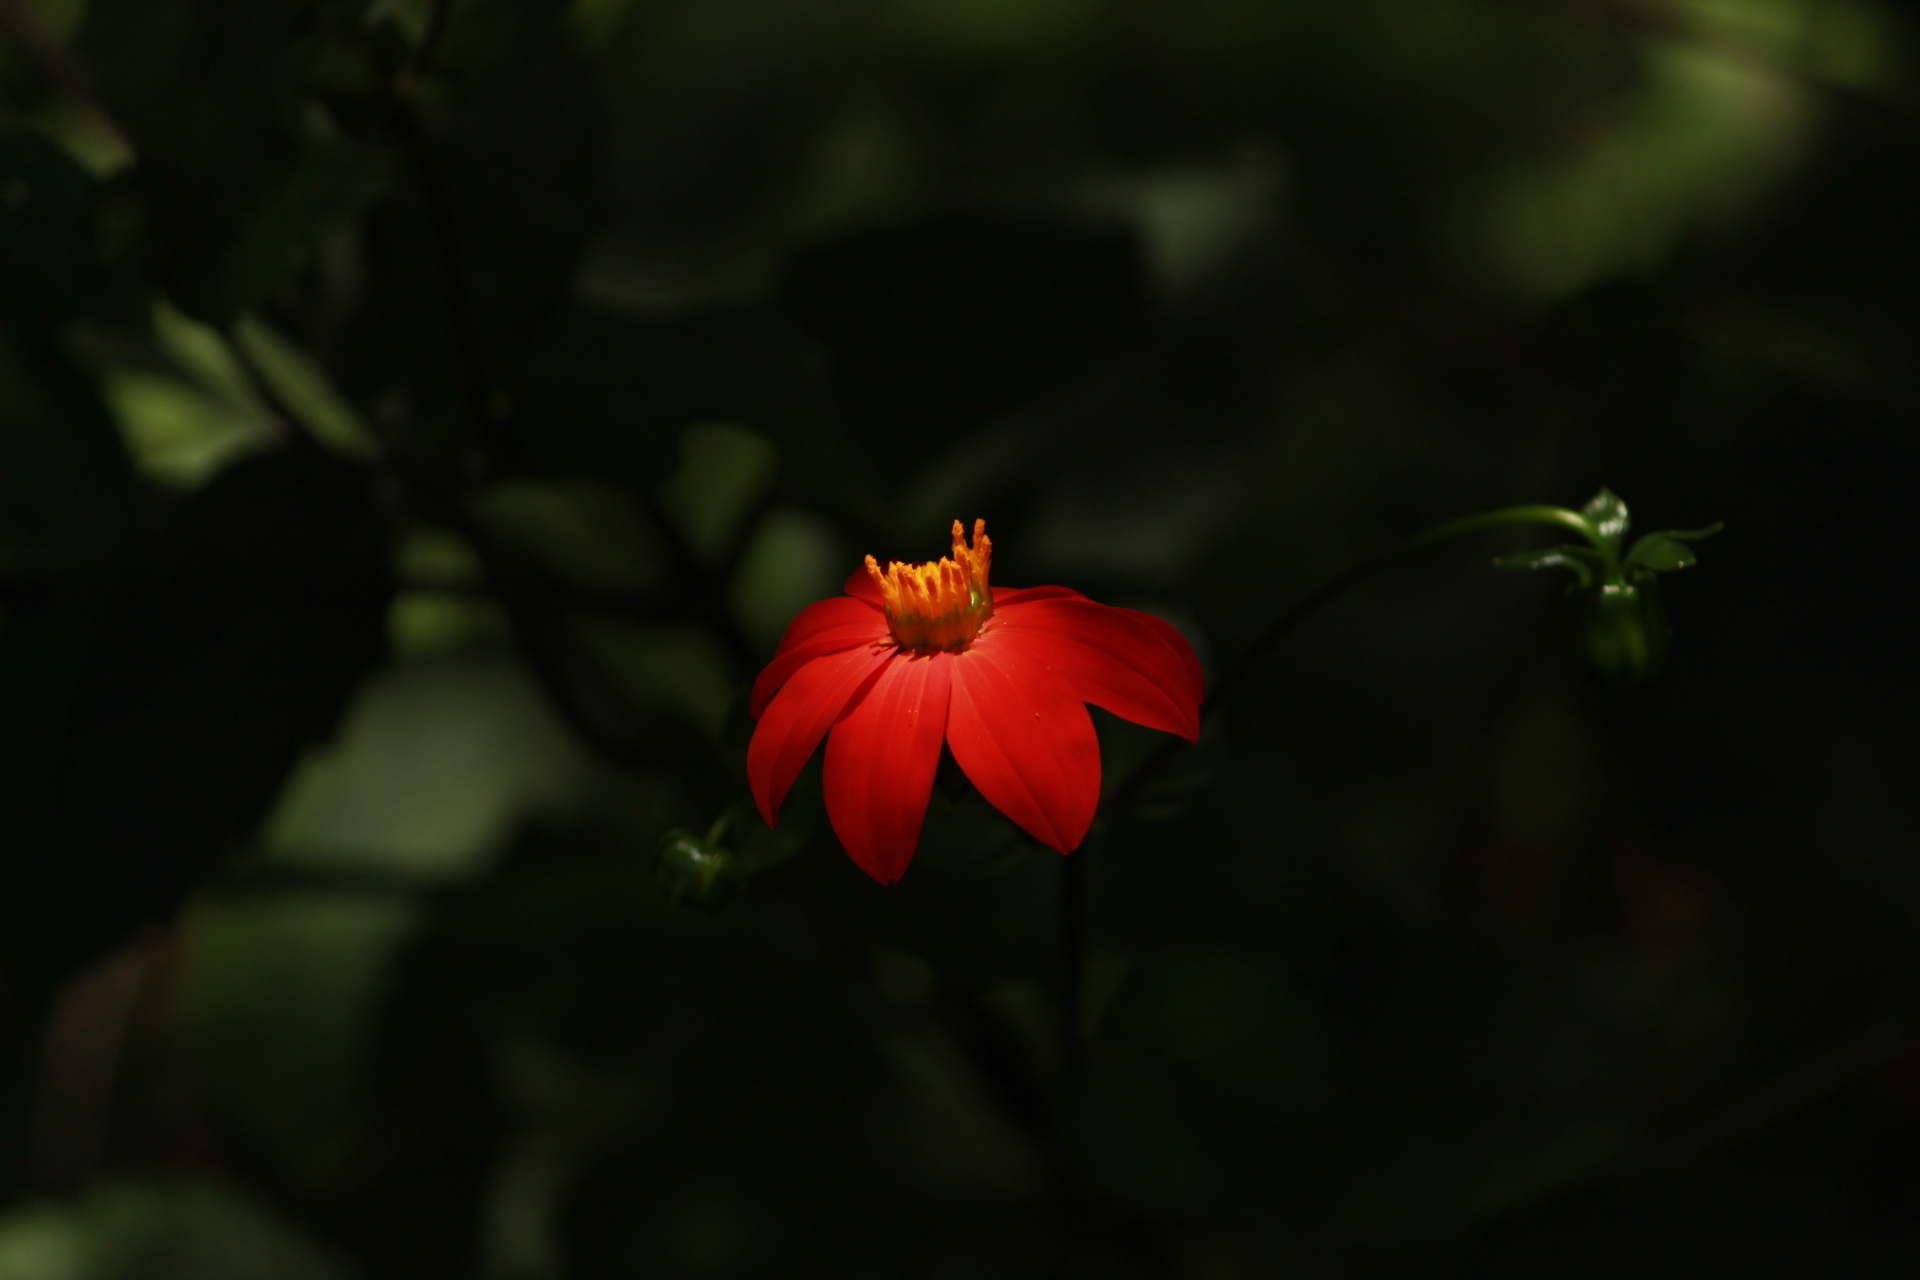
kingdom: Plantae
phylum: Tracheophyta
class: Magnoliopsida
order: Asterales
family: Asteraceae
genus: Dahlia
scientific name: Dahlia coccinea
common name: Red dahlia
